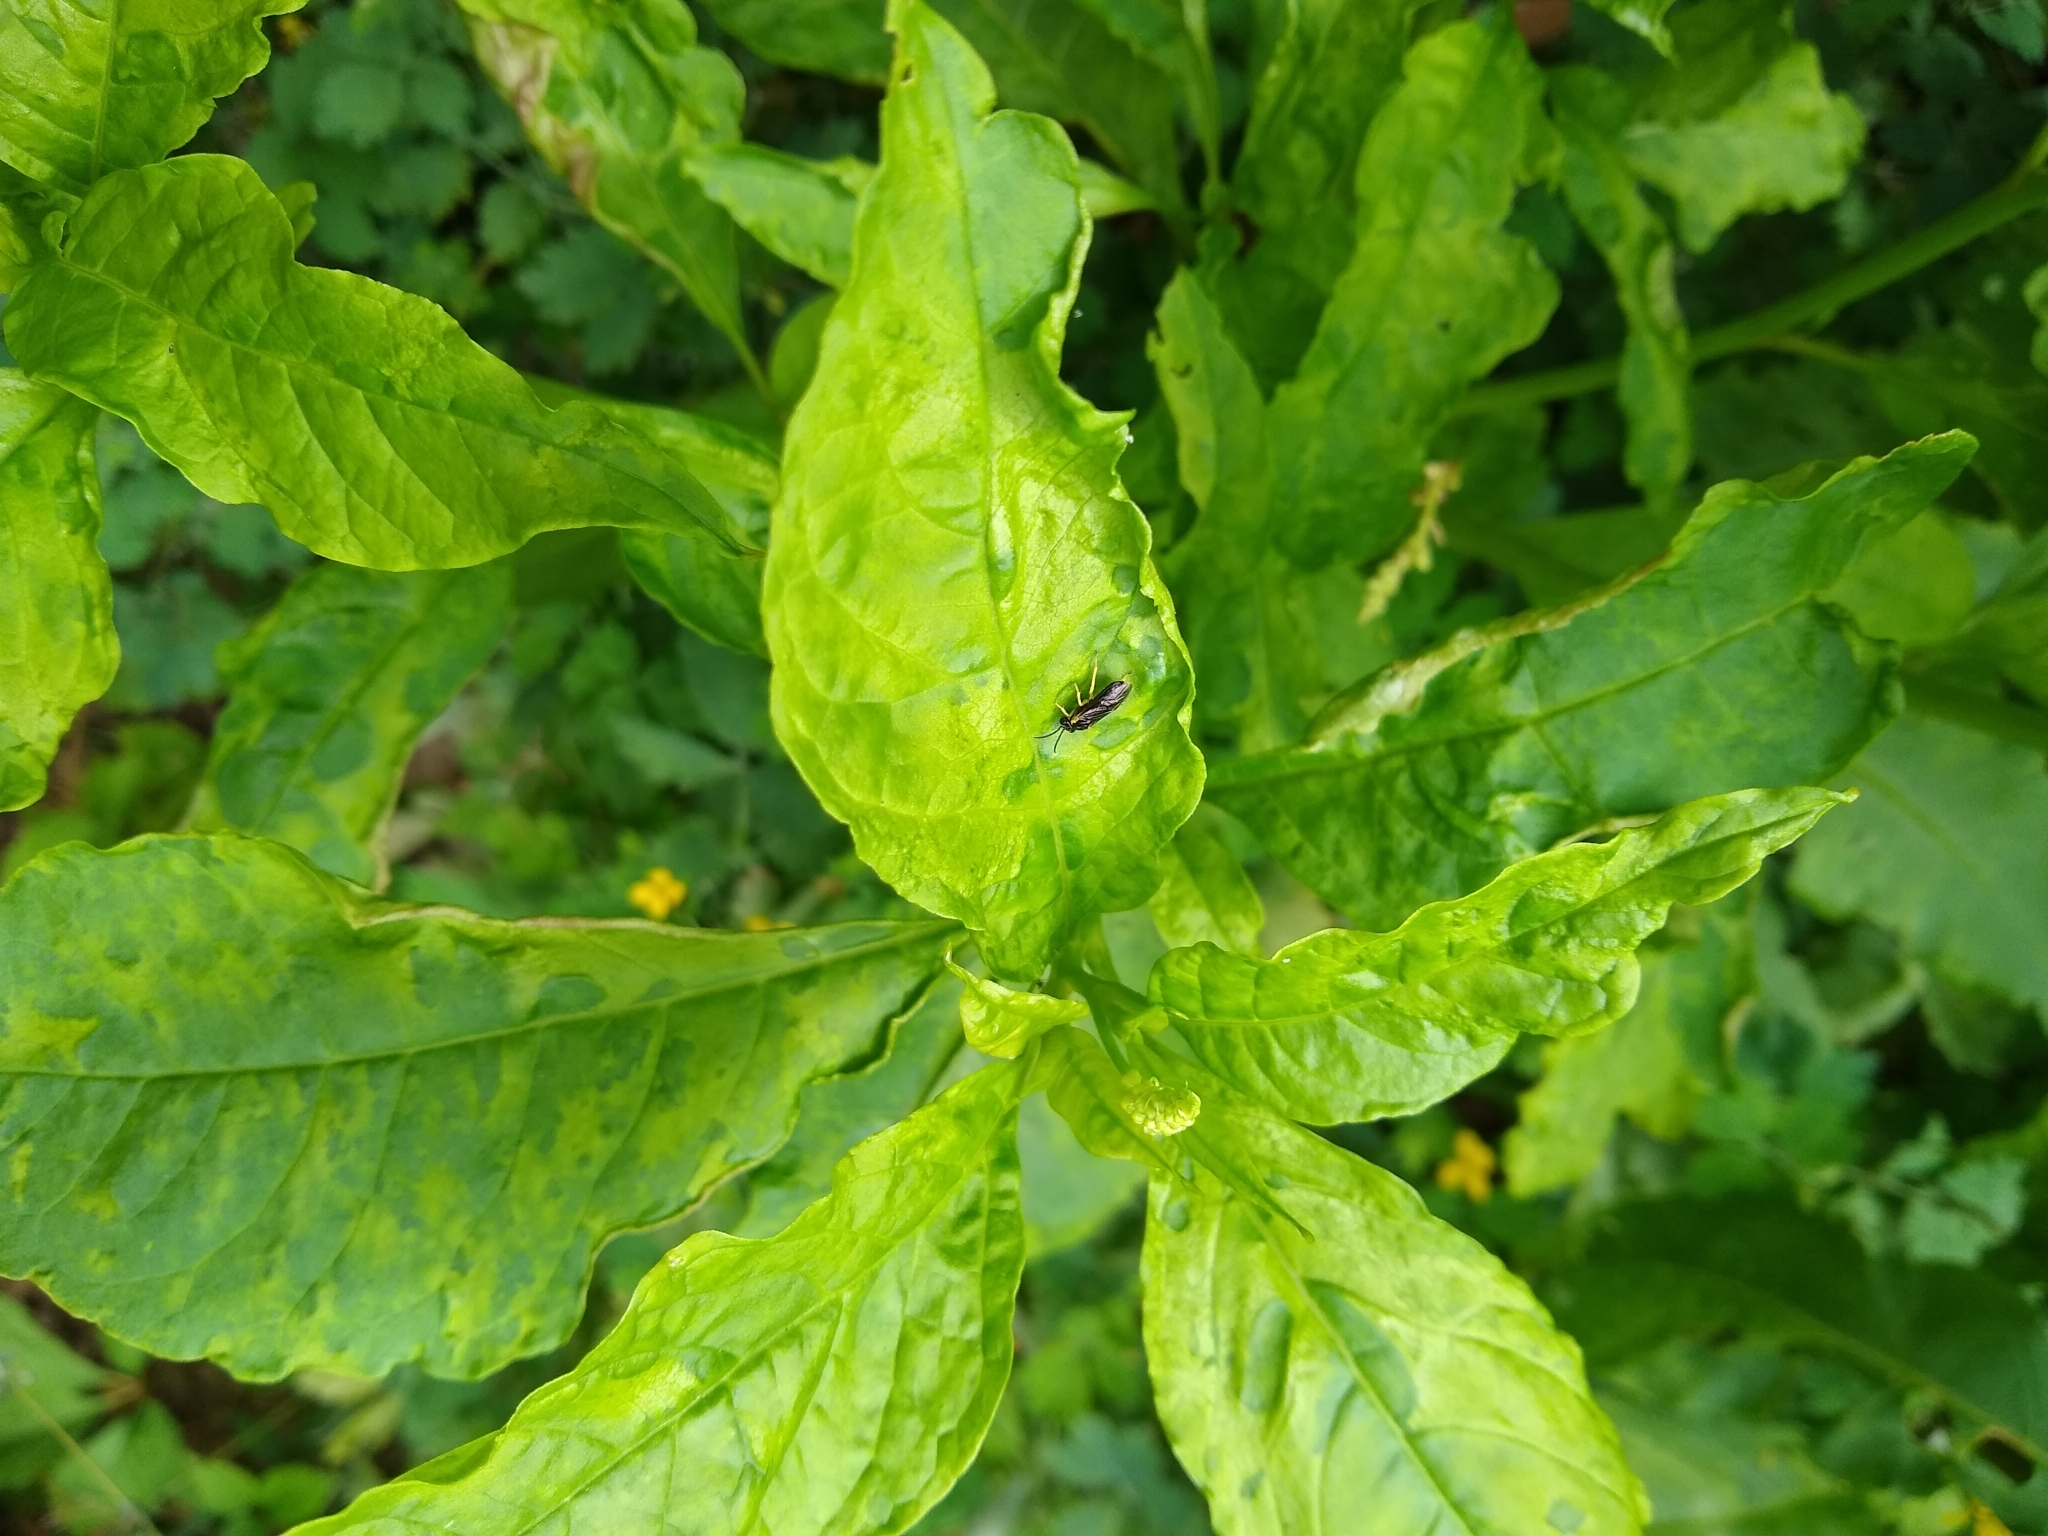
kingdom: Plantae
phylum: Tracheophyta
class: Magnoliopsida
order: Caryophyllales
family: Phytolaccaceae
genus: Phytolacca
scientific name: Phytolacca americana
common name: American pokeweed
